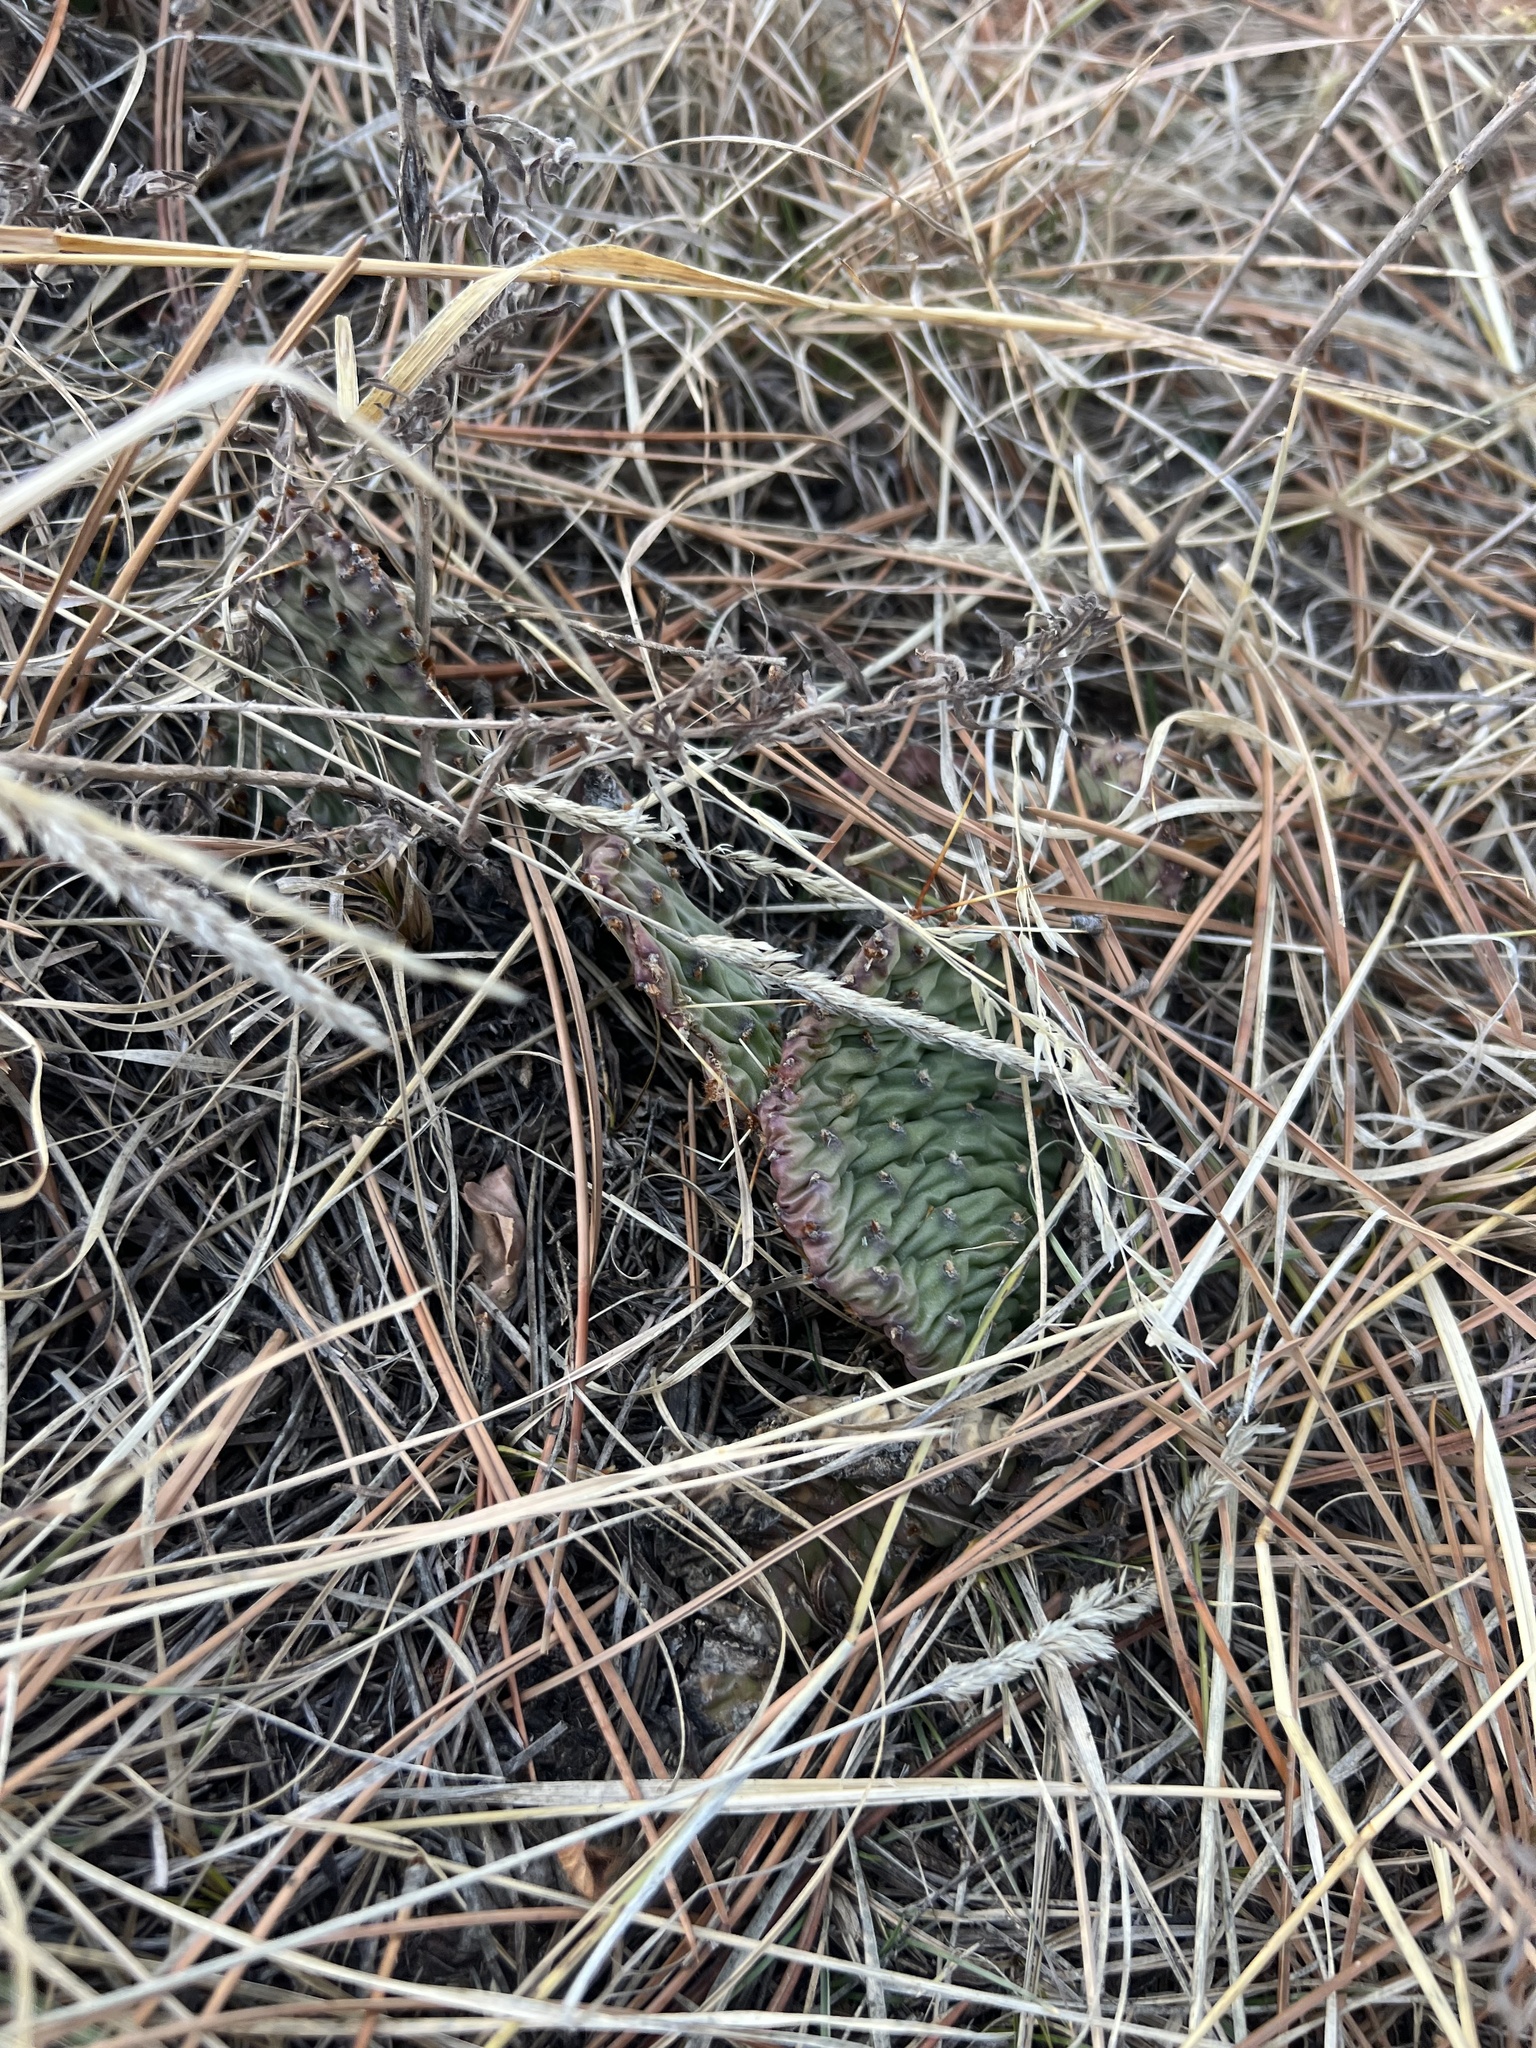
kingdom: Plantae
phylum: Tracheophyta
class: Magnoliopsida
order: Caryophyllales
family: Cactaceae
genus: Opuntia
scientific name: Opuntia macrorhiza
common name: Grassland pricklypear
